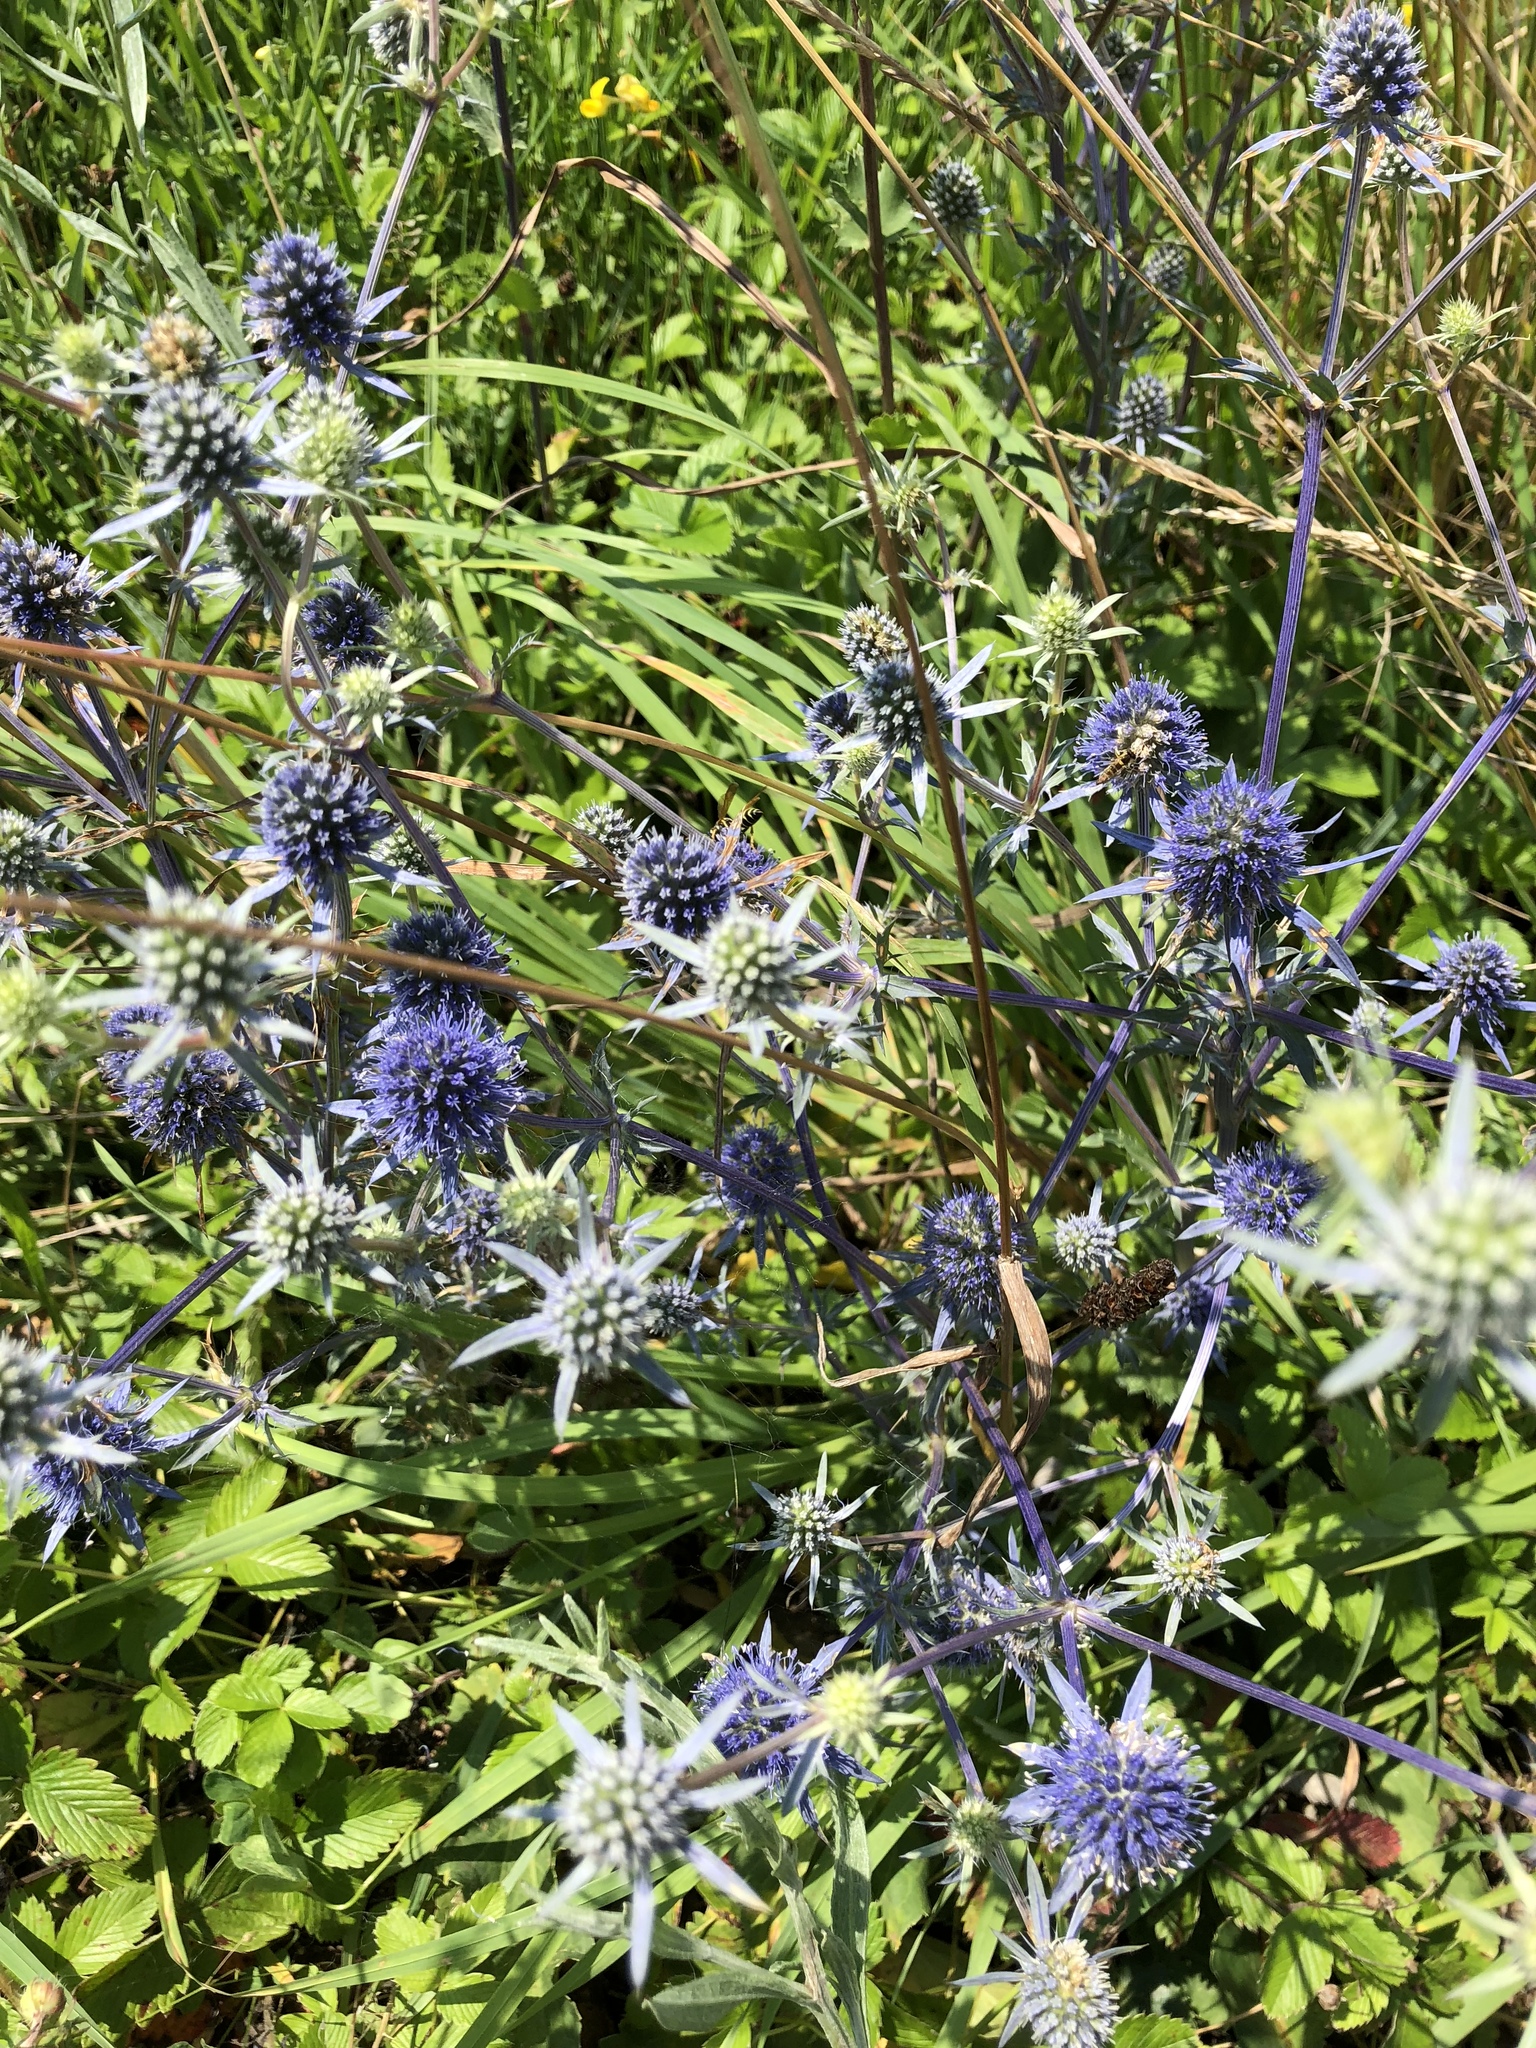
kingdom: Plantae
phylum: Tracheophyta
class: Magnoliopsida
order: Apiales
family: Apiaceae
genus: Eryngium
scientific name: Eryngium planum
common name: Blue eryngo
